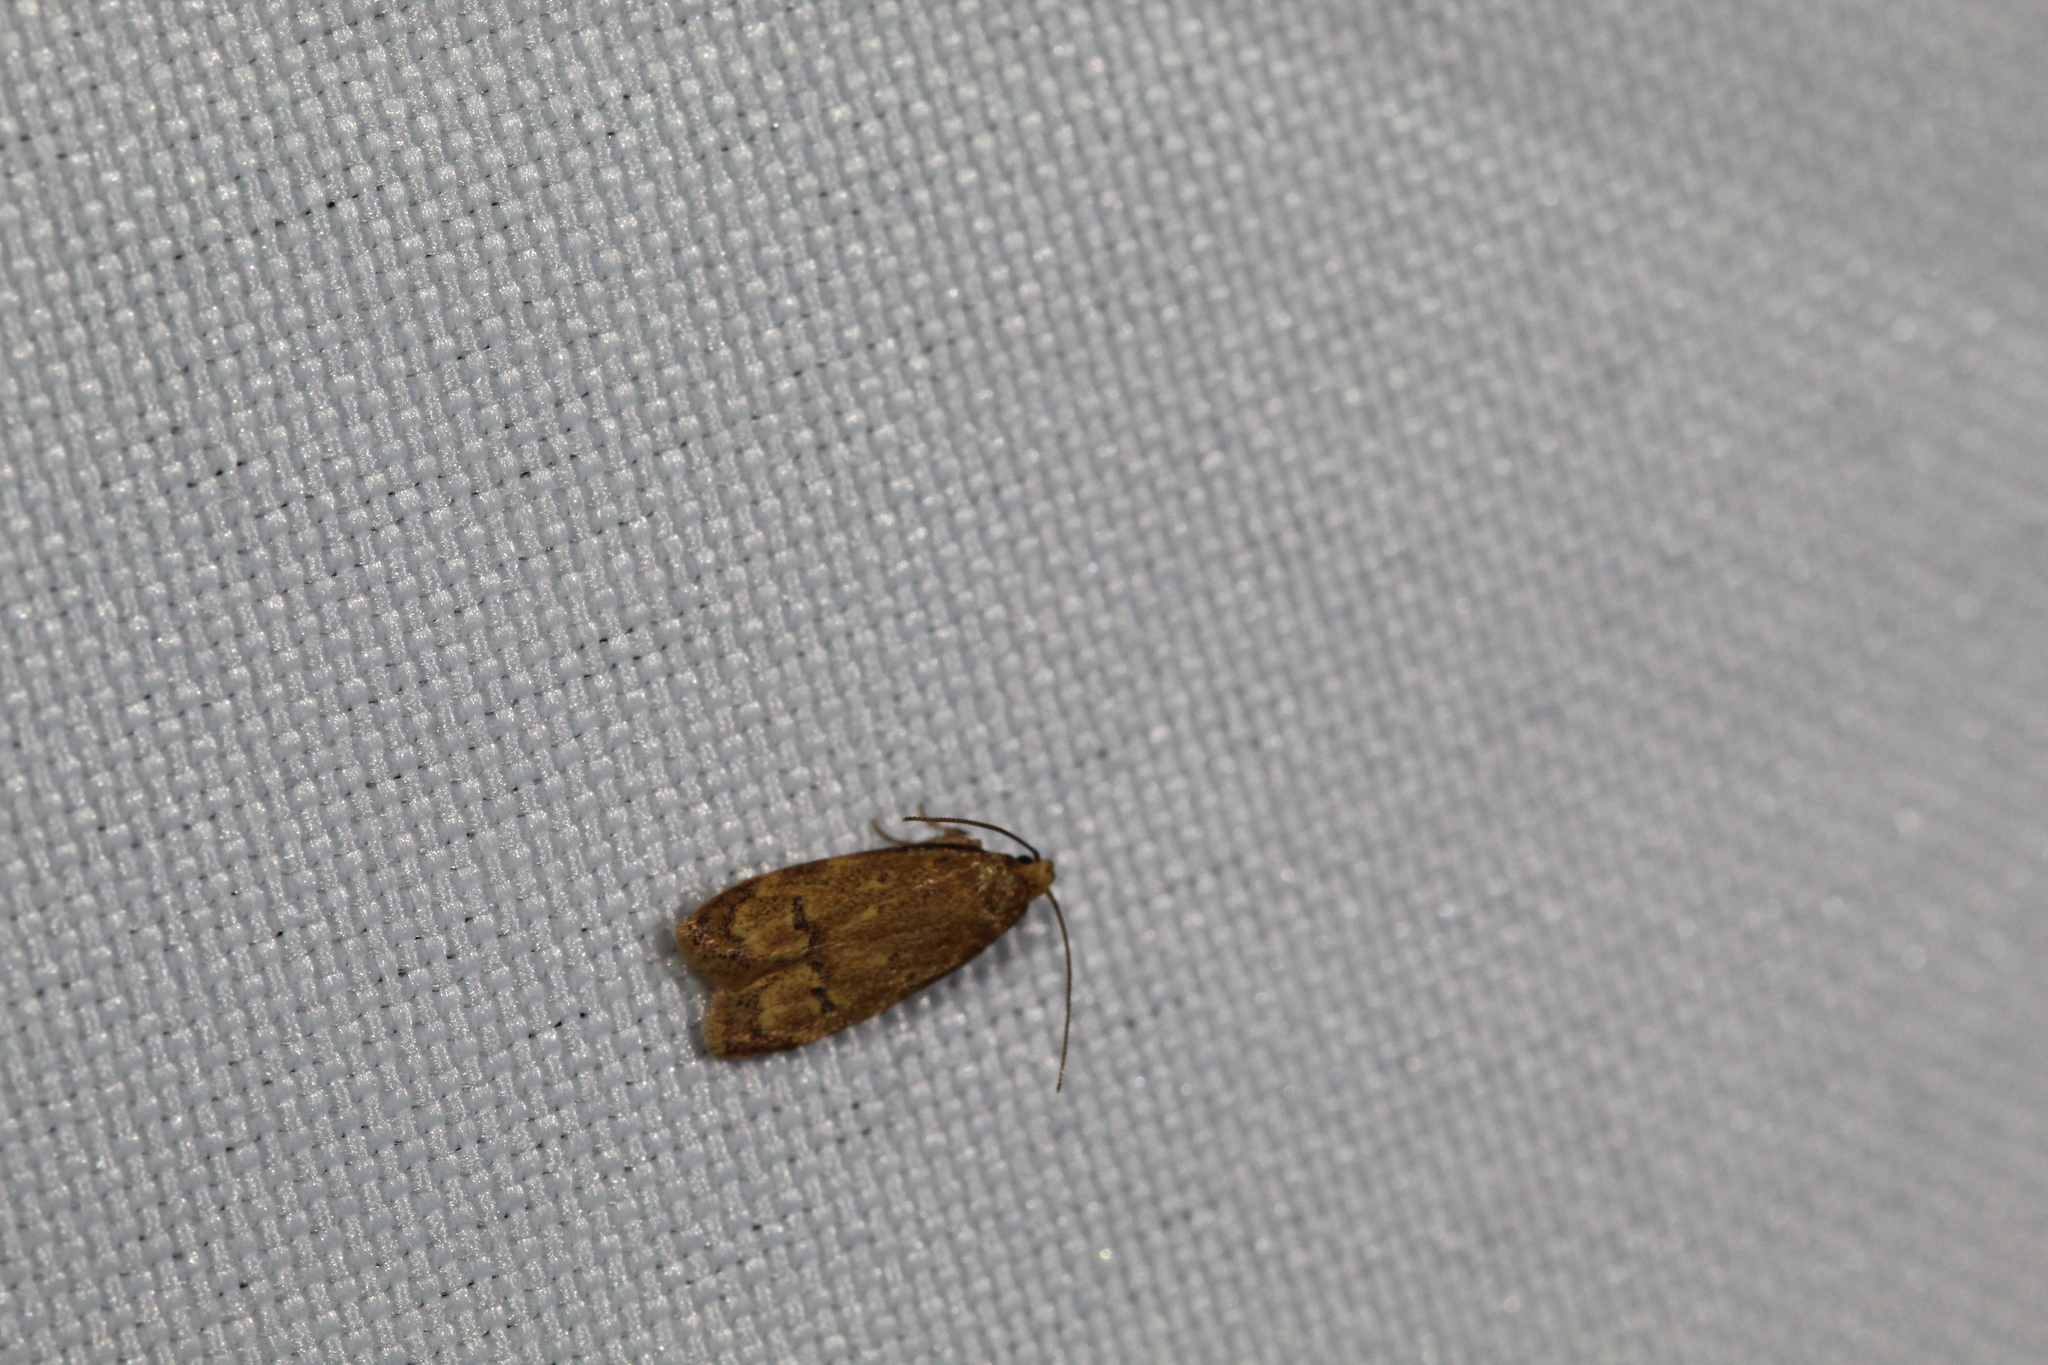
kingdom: Animalia
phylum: Arthropoda
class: Insecta
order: Lepidoptera
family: Autostichidae
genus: Gerdana
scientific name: Gerdana caritella
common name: Gerdana moth
